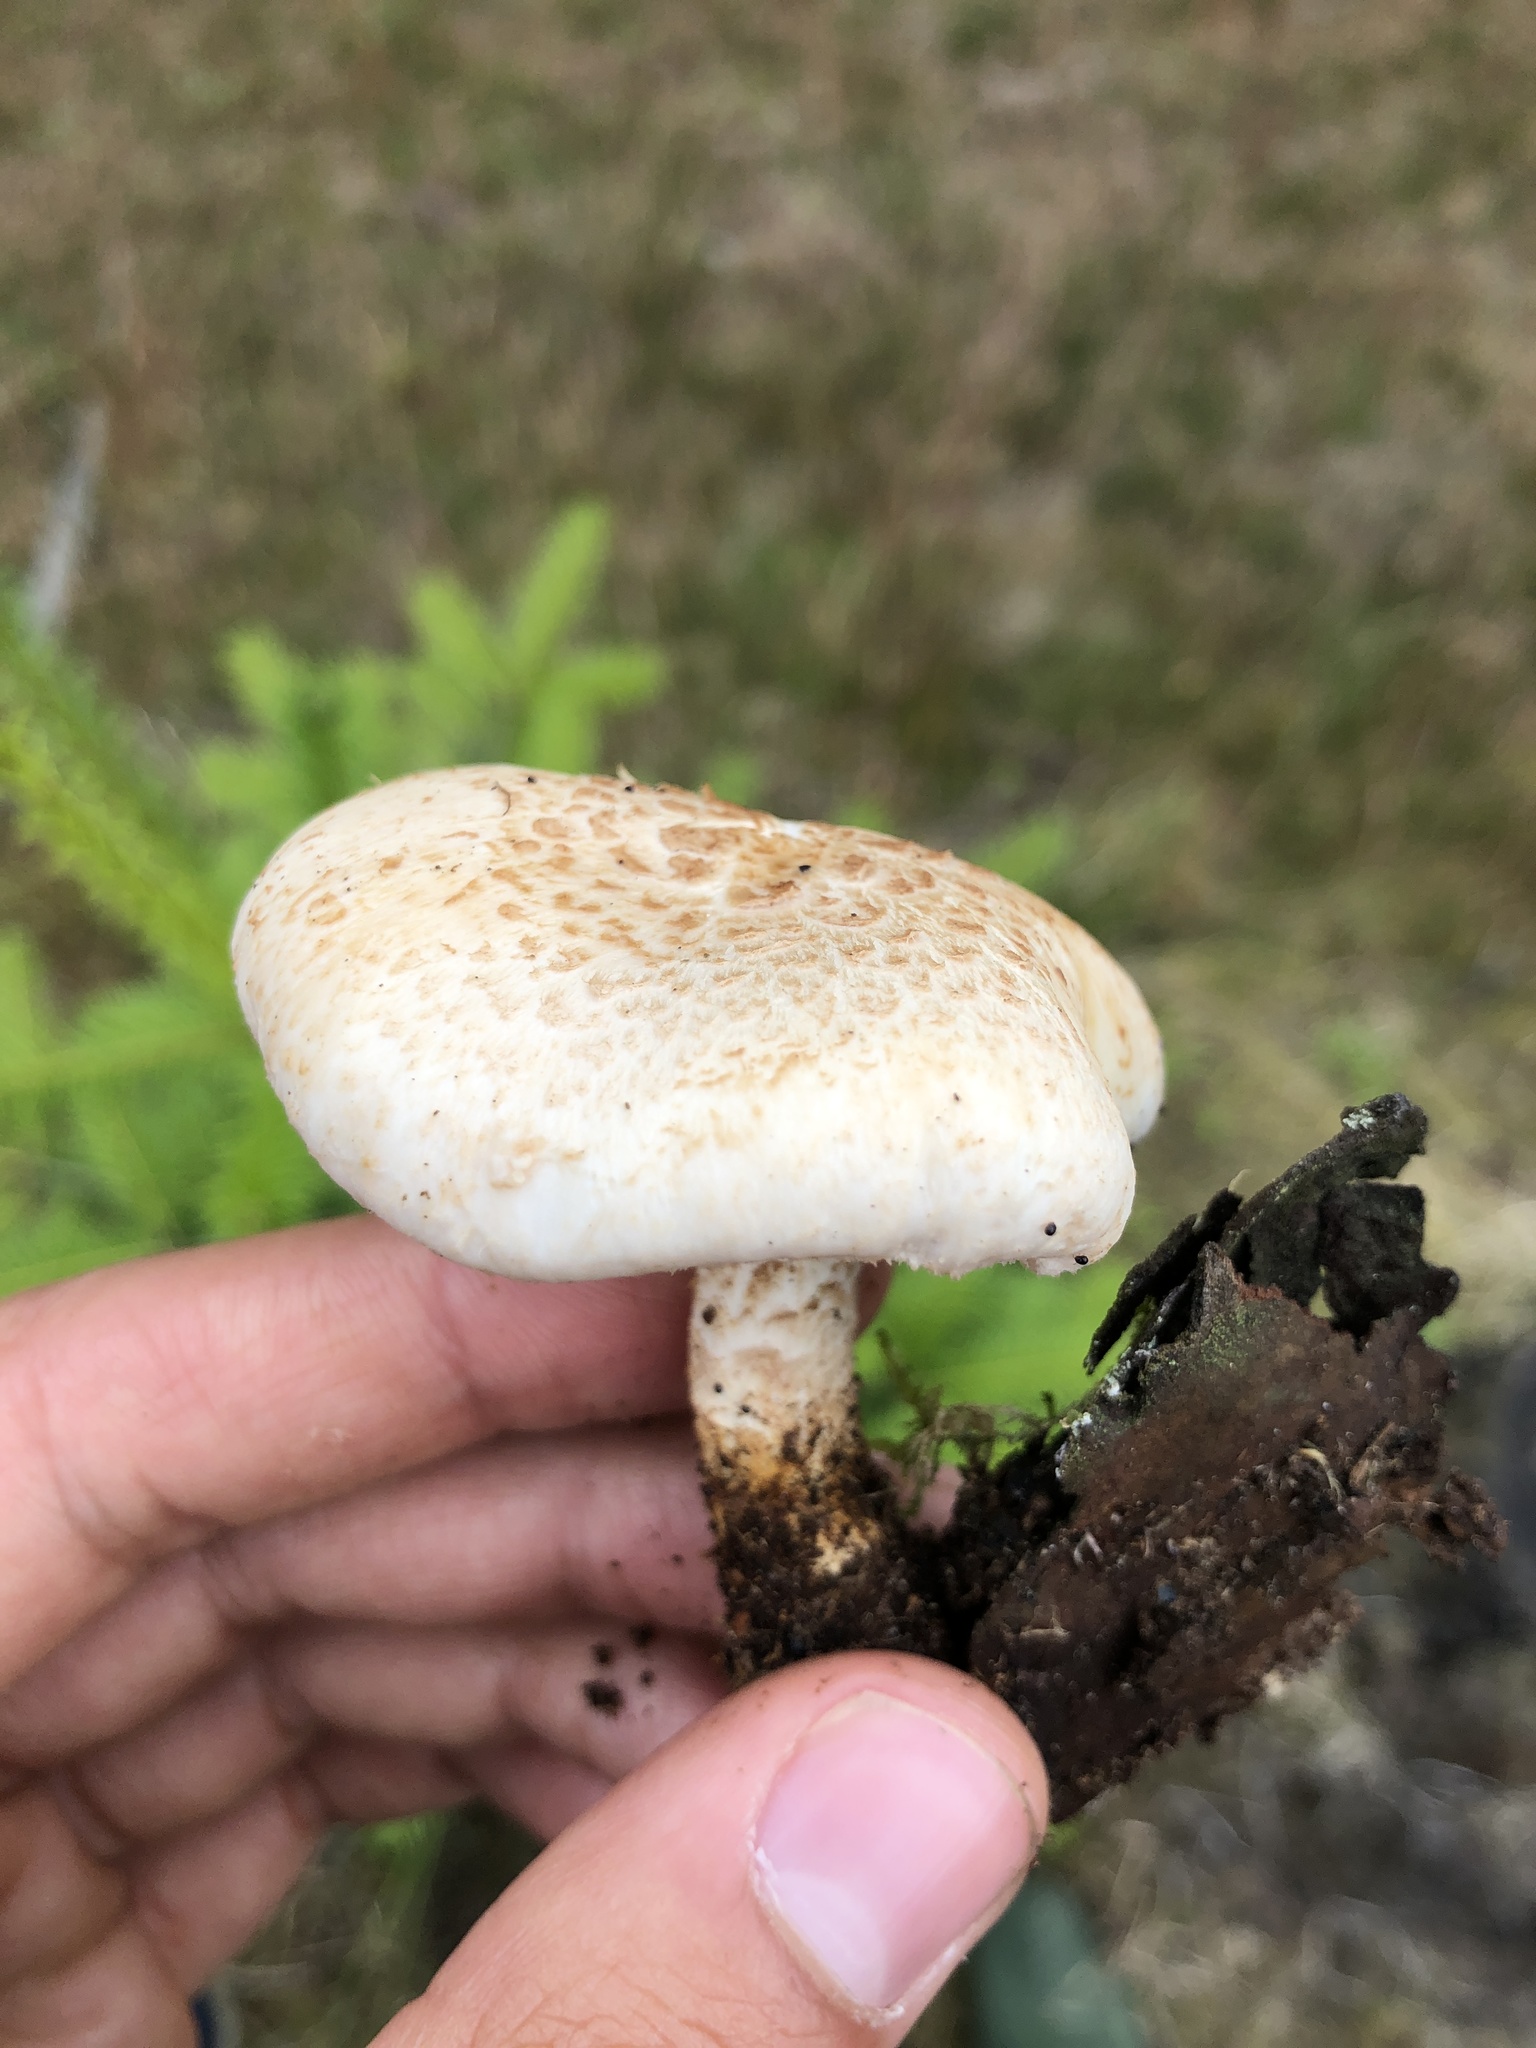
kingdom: Fungi
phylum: Basidiomycota
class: Agaricomycetes
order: Gloeophyllales
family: Gloeophyllaceae
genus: Neolentinus
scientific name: Neolentinus lepideus
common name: Scaly sawgill
